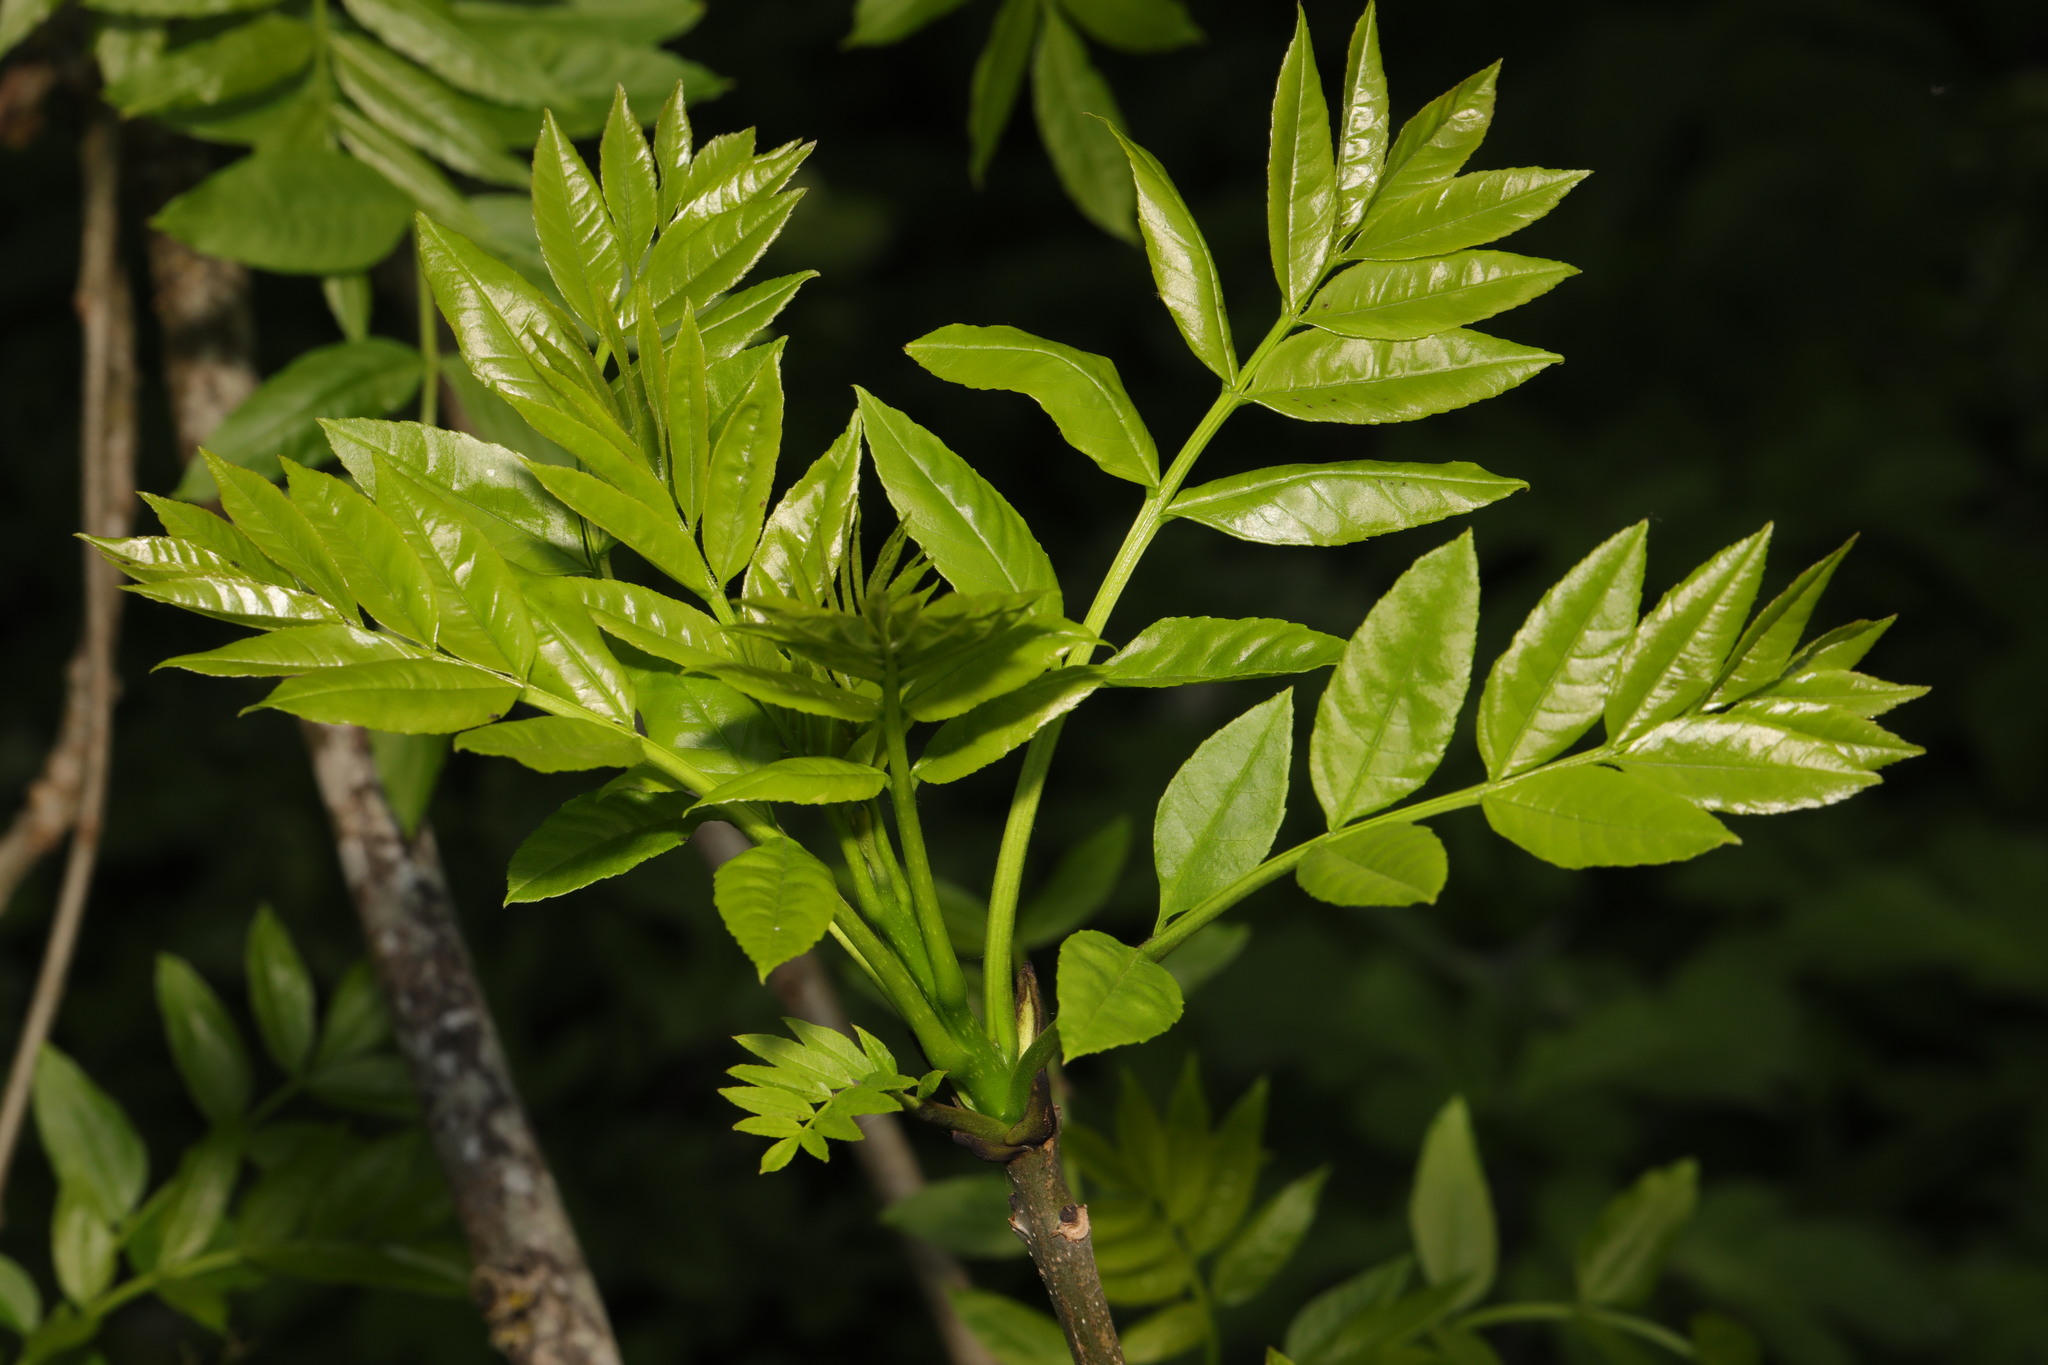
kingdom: Plantae
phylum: Tracheophyta
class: Magnoliopsida
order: Lamiales
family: Oleaceae
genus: Fraxinus
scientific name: Fraxinus excelsior
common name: European ash
